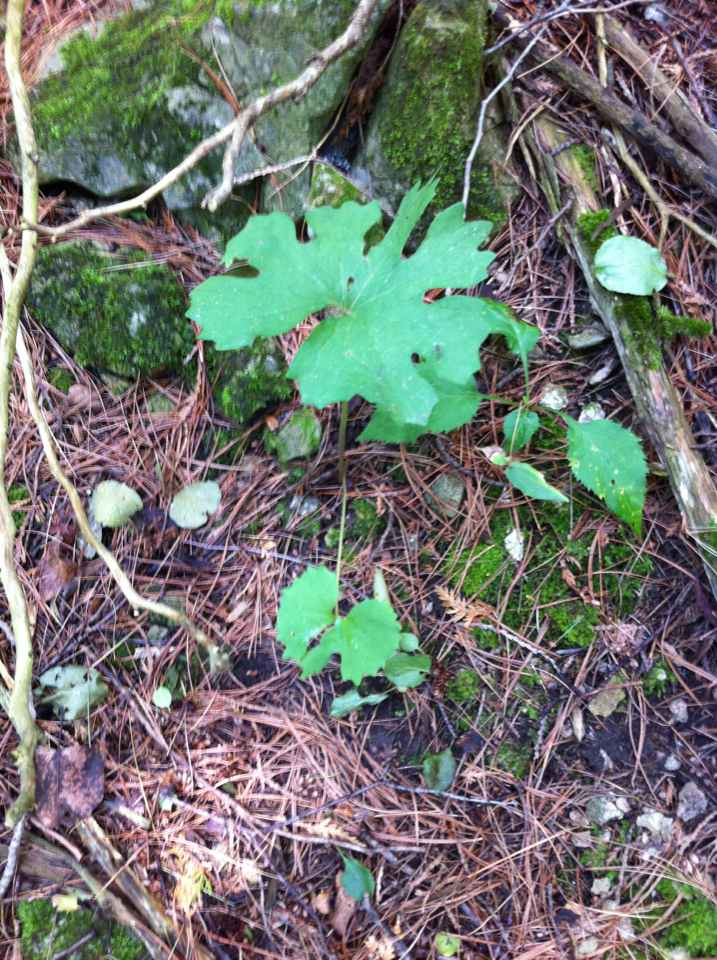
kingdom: Plantae
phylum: Tracheophyta
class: Magnoliopsida
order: Ranunculales
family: Papaveraceae
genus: Sanguinaria
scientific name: Sanguinaria canadensis
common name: Bloodroot
